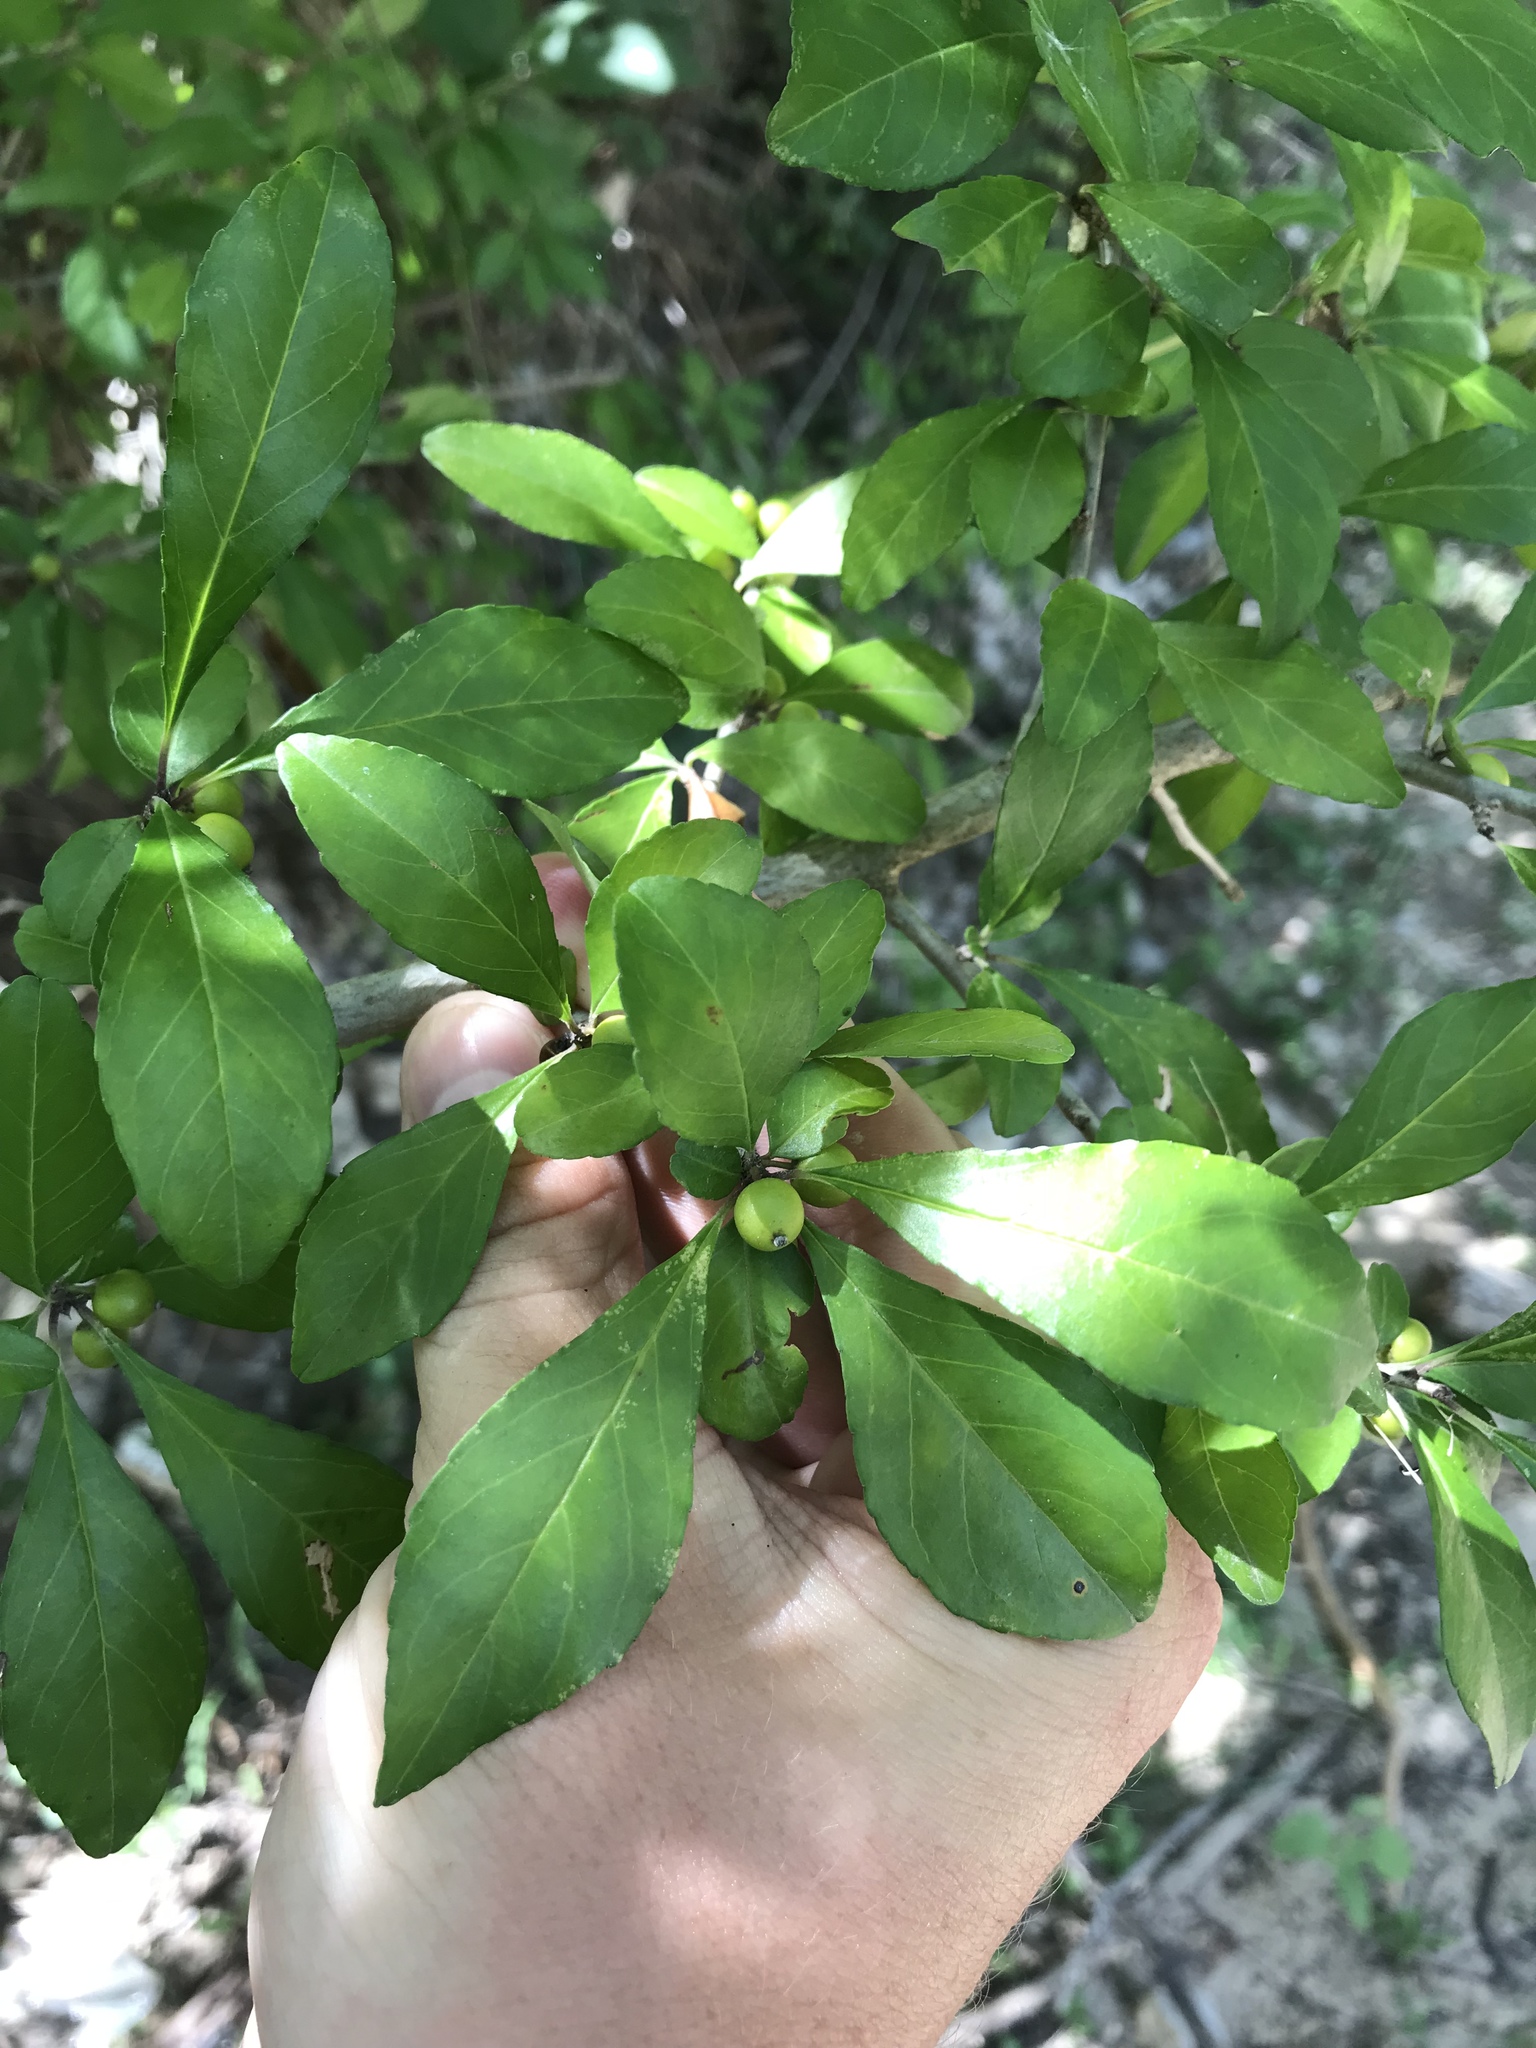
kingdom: Plantae
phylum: Tracheophyta
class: Magnoliopsida
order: Aquifoliales
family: Aquifoliaceae
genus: Ilex
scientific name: Ilex decidua
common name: Possum-haw
